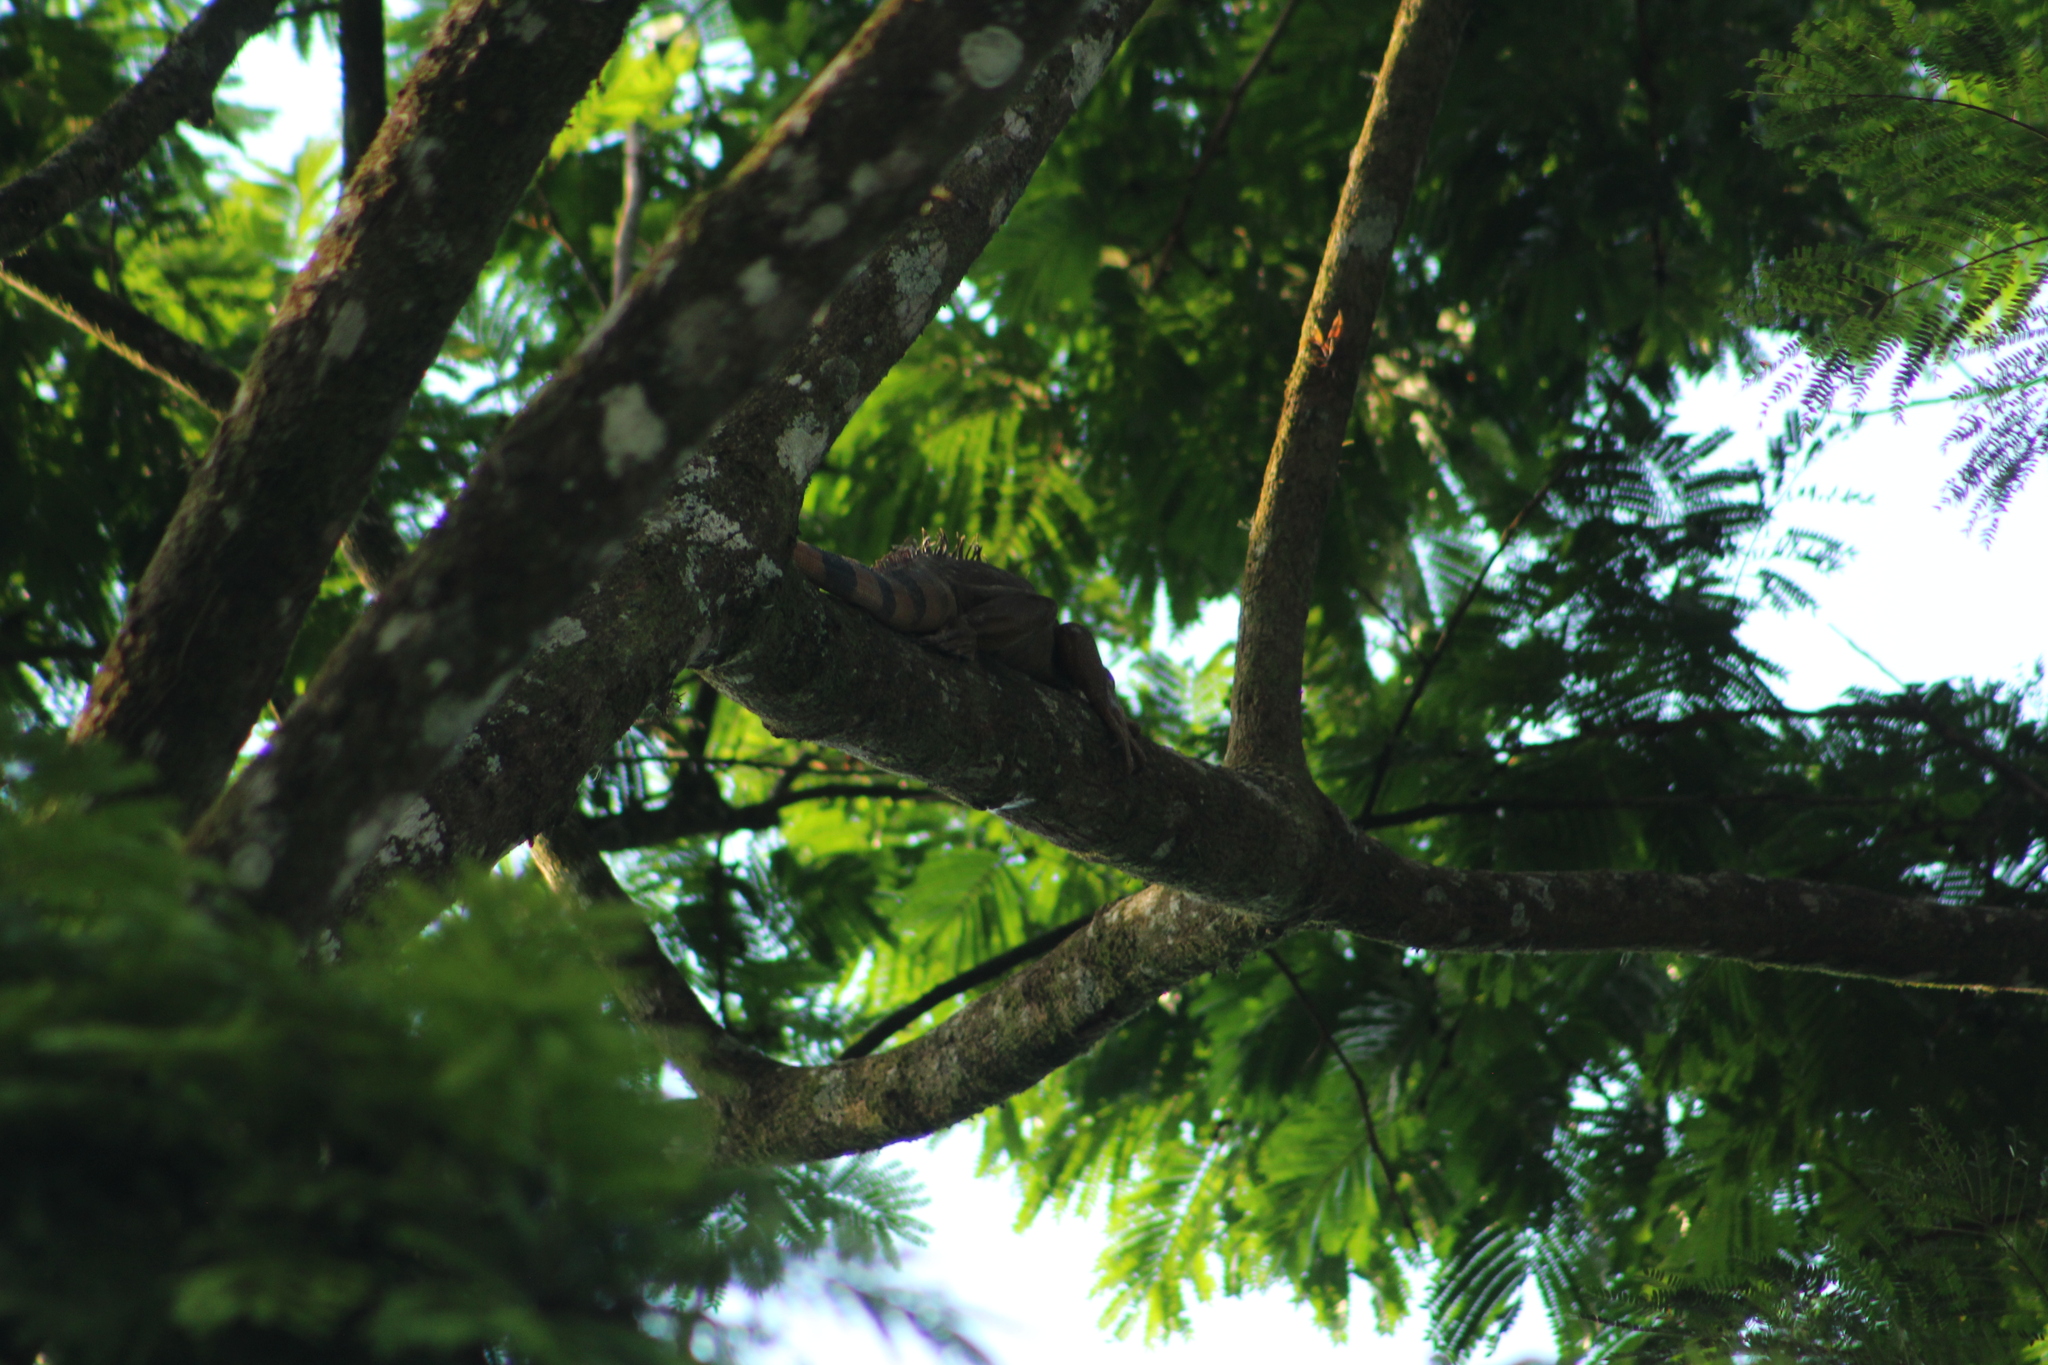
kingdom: Animalia
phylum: Chordata
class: Squamata
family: Iguanidae
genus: Iguana
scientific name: Iguana iguana
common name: Green iguana
